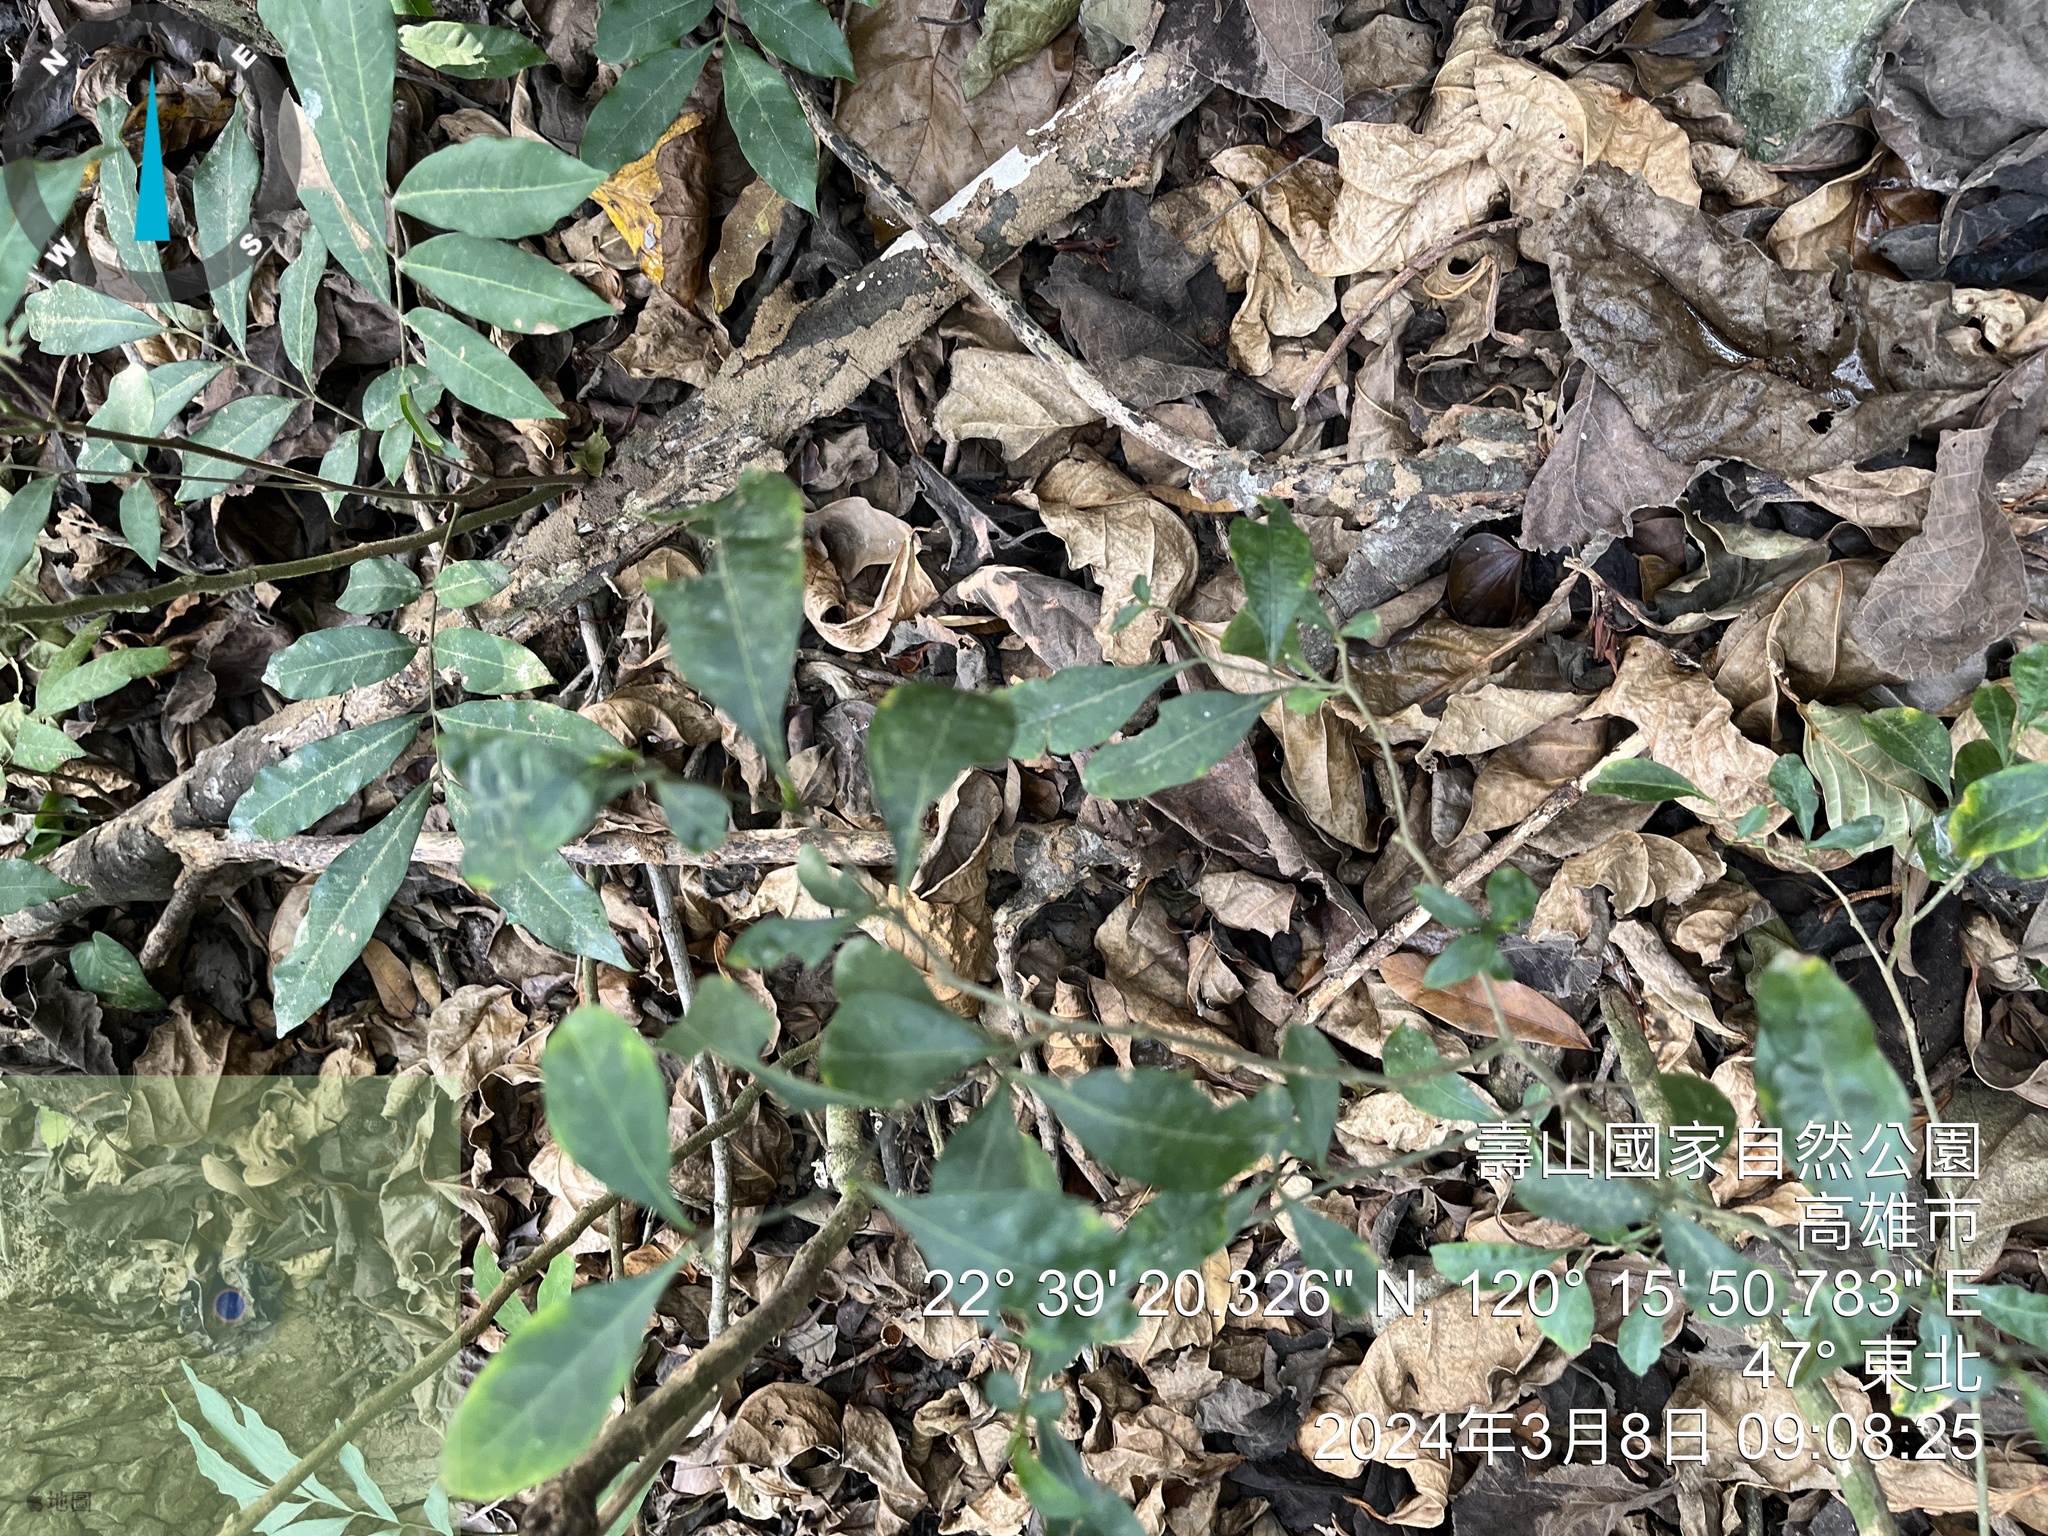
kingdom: Plantae
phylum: Tracheophyta
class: Magnoliopsida
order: Solanales
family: Solanaceae
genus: Solanum
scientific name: Solanum diphyllum
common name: Twoleaf nightshade
